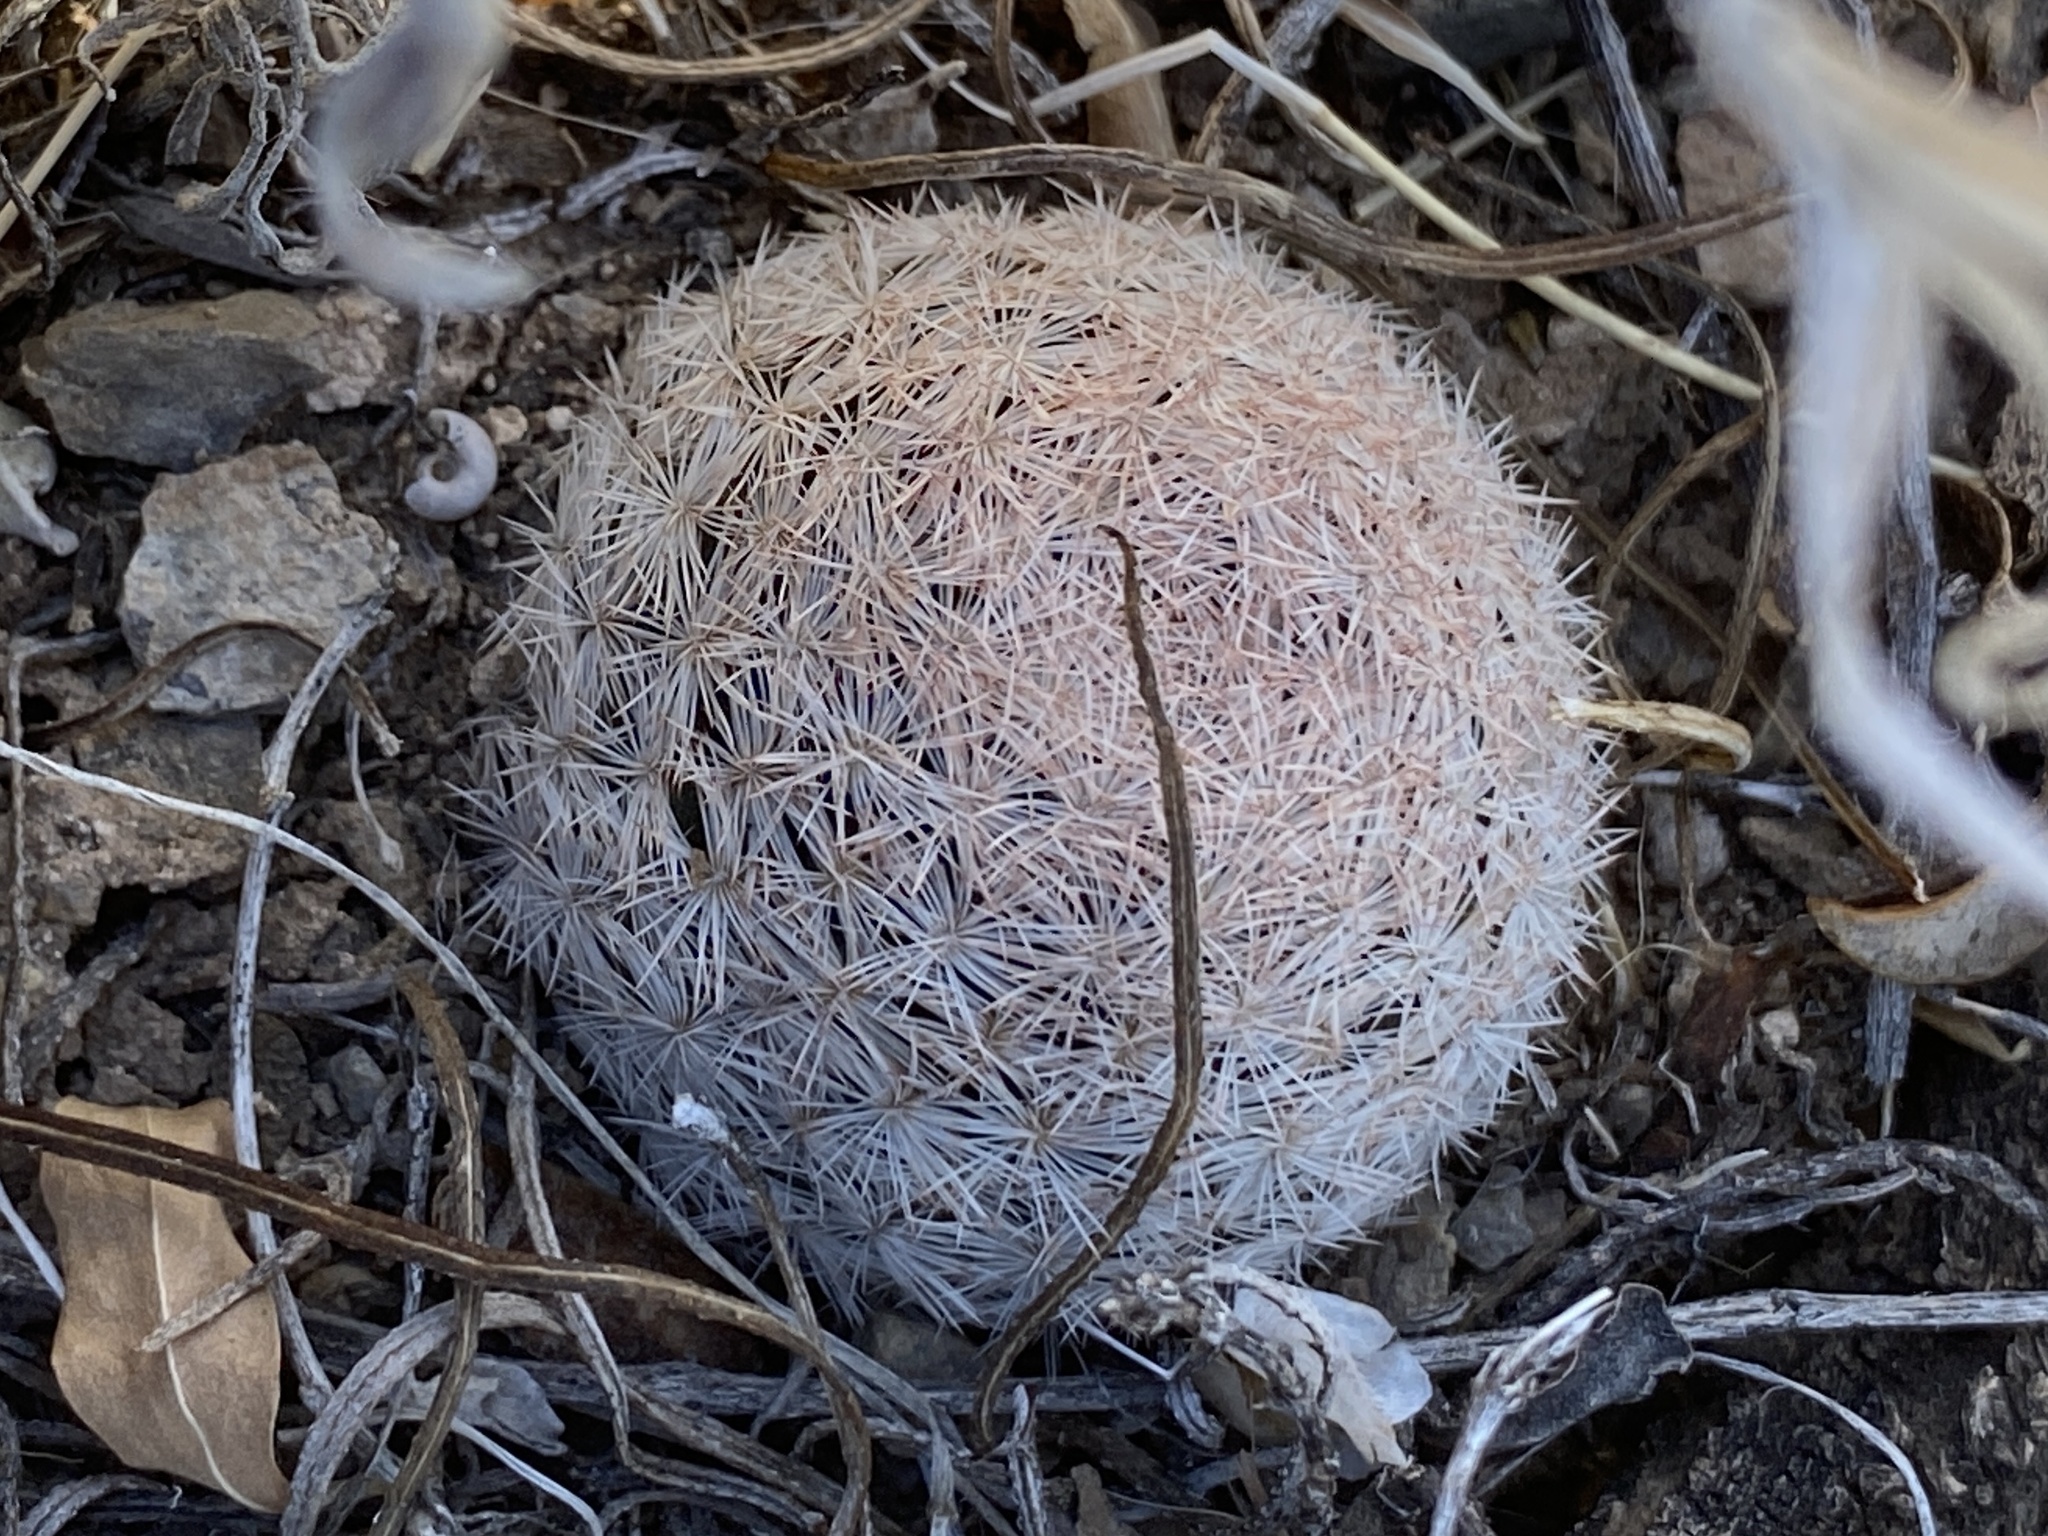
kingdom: Plantae
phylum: Tracheophyta
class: Magnoliopsida
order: Caryophyllales
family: Cactaceae
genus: Mammillaria
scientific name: Mammillaria lasiacantha
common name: Lace-spine nipple cactus
